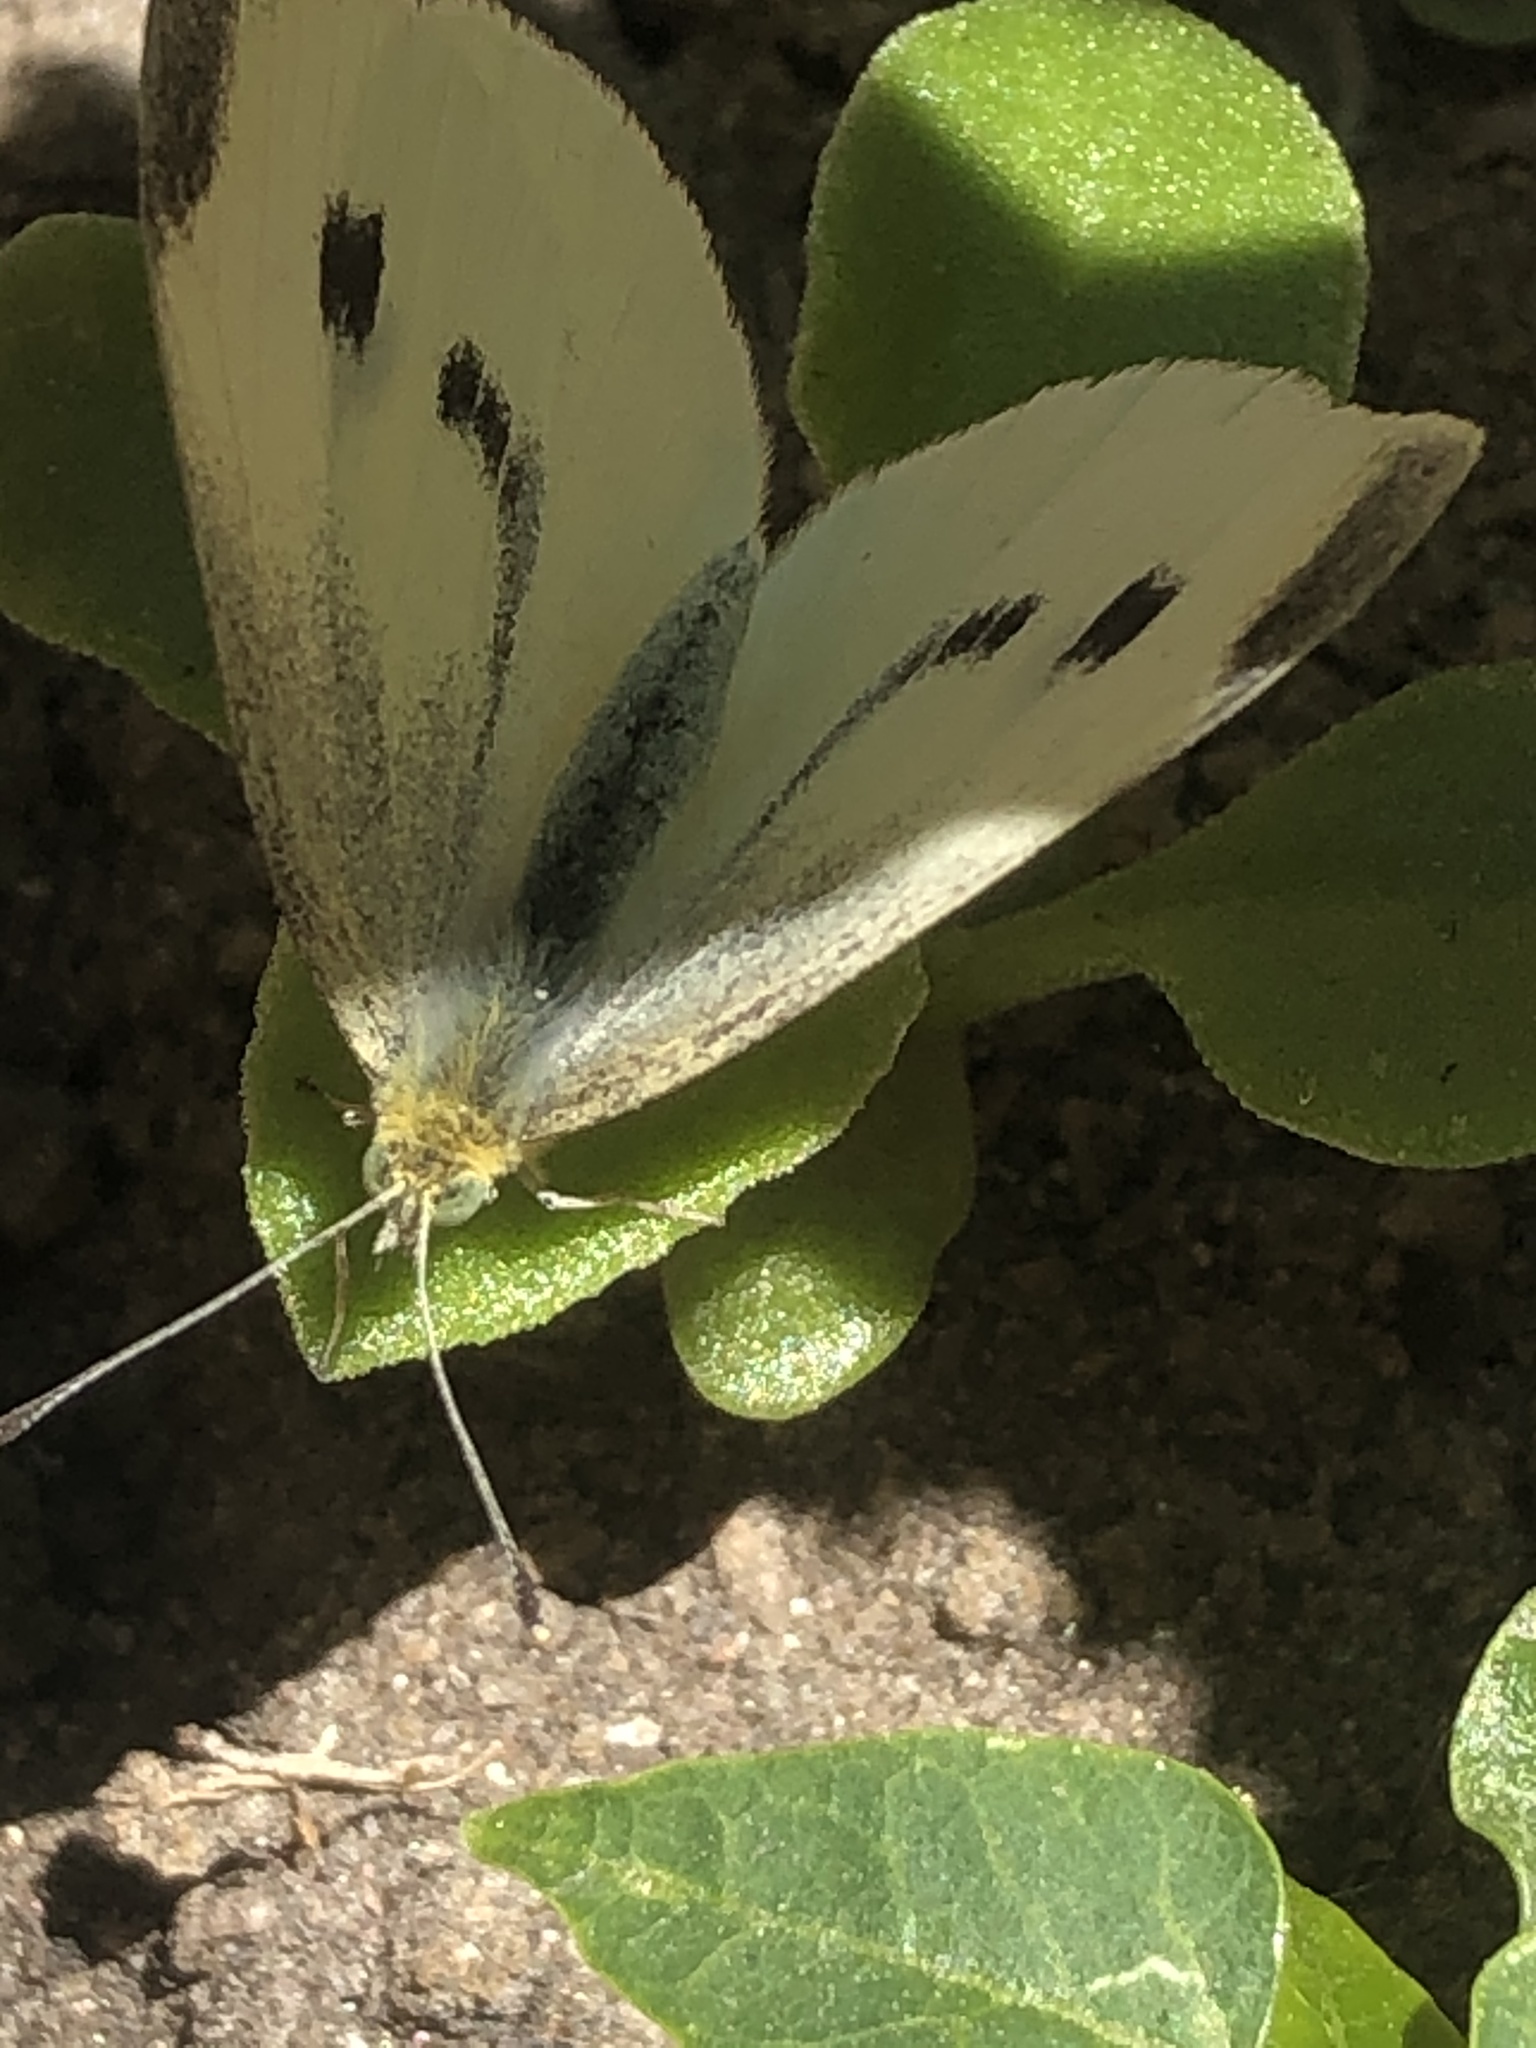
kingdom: Animalia
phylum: Arthropoda
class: Insecta
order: Lepidoptera
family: Pieridae
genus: Pieris
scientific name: Pieris rapae
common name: Small white
